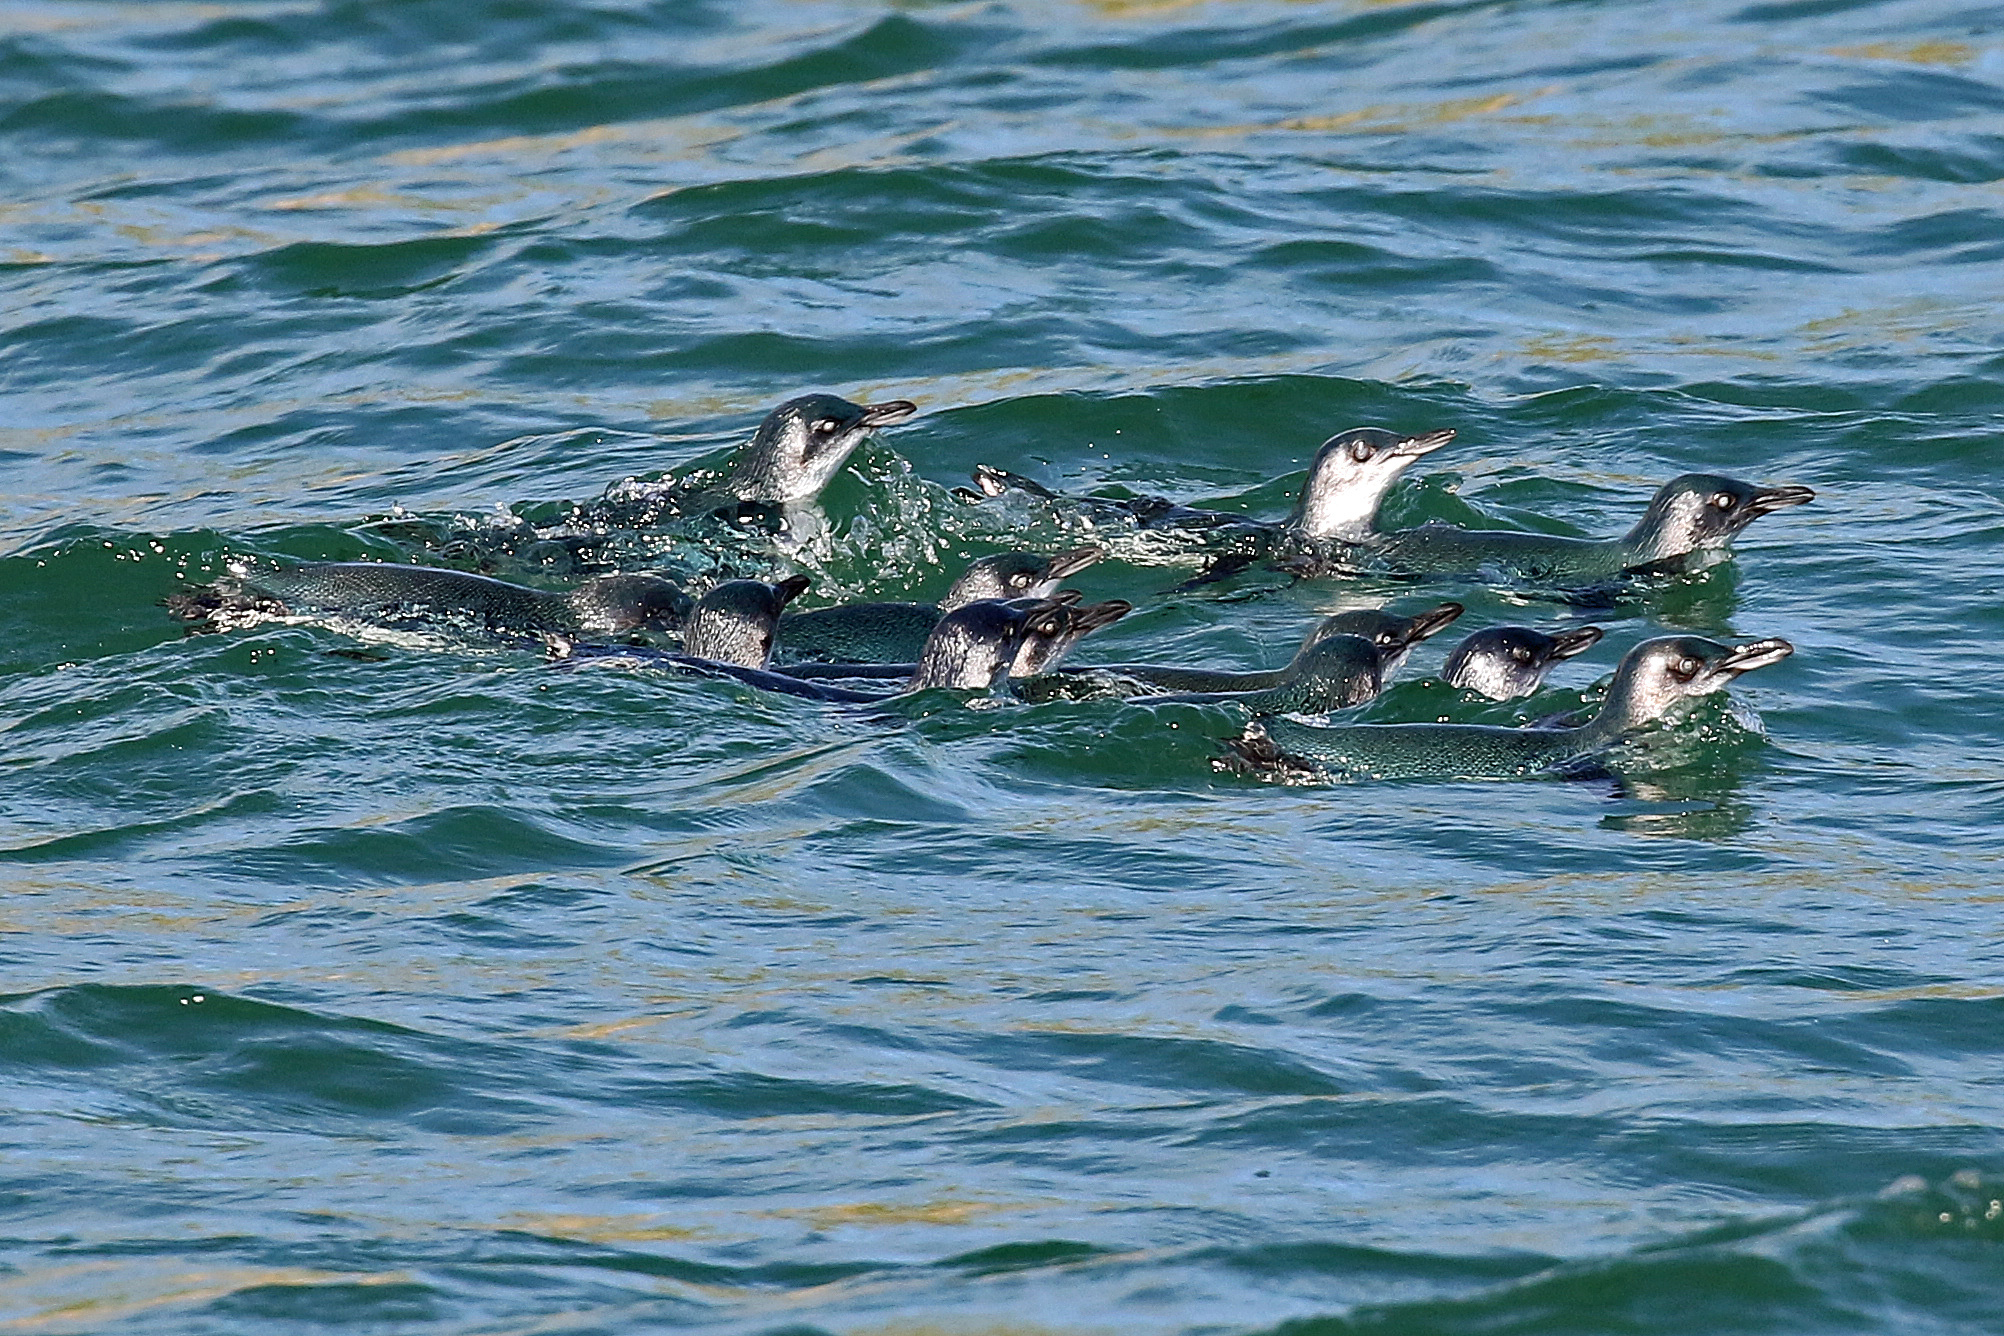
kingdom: Animalia
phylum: Chordata
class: Aves
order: Sphenisciformes
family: Spheniscidae
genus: Eudyptula
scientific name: Eudyptula minor
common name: Little penguin
